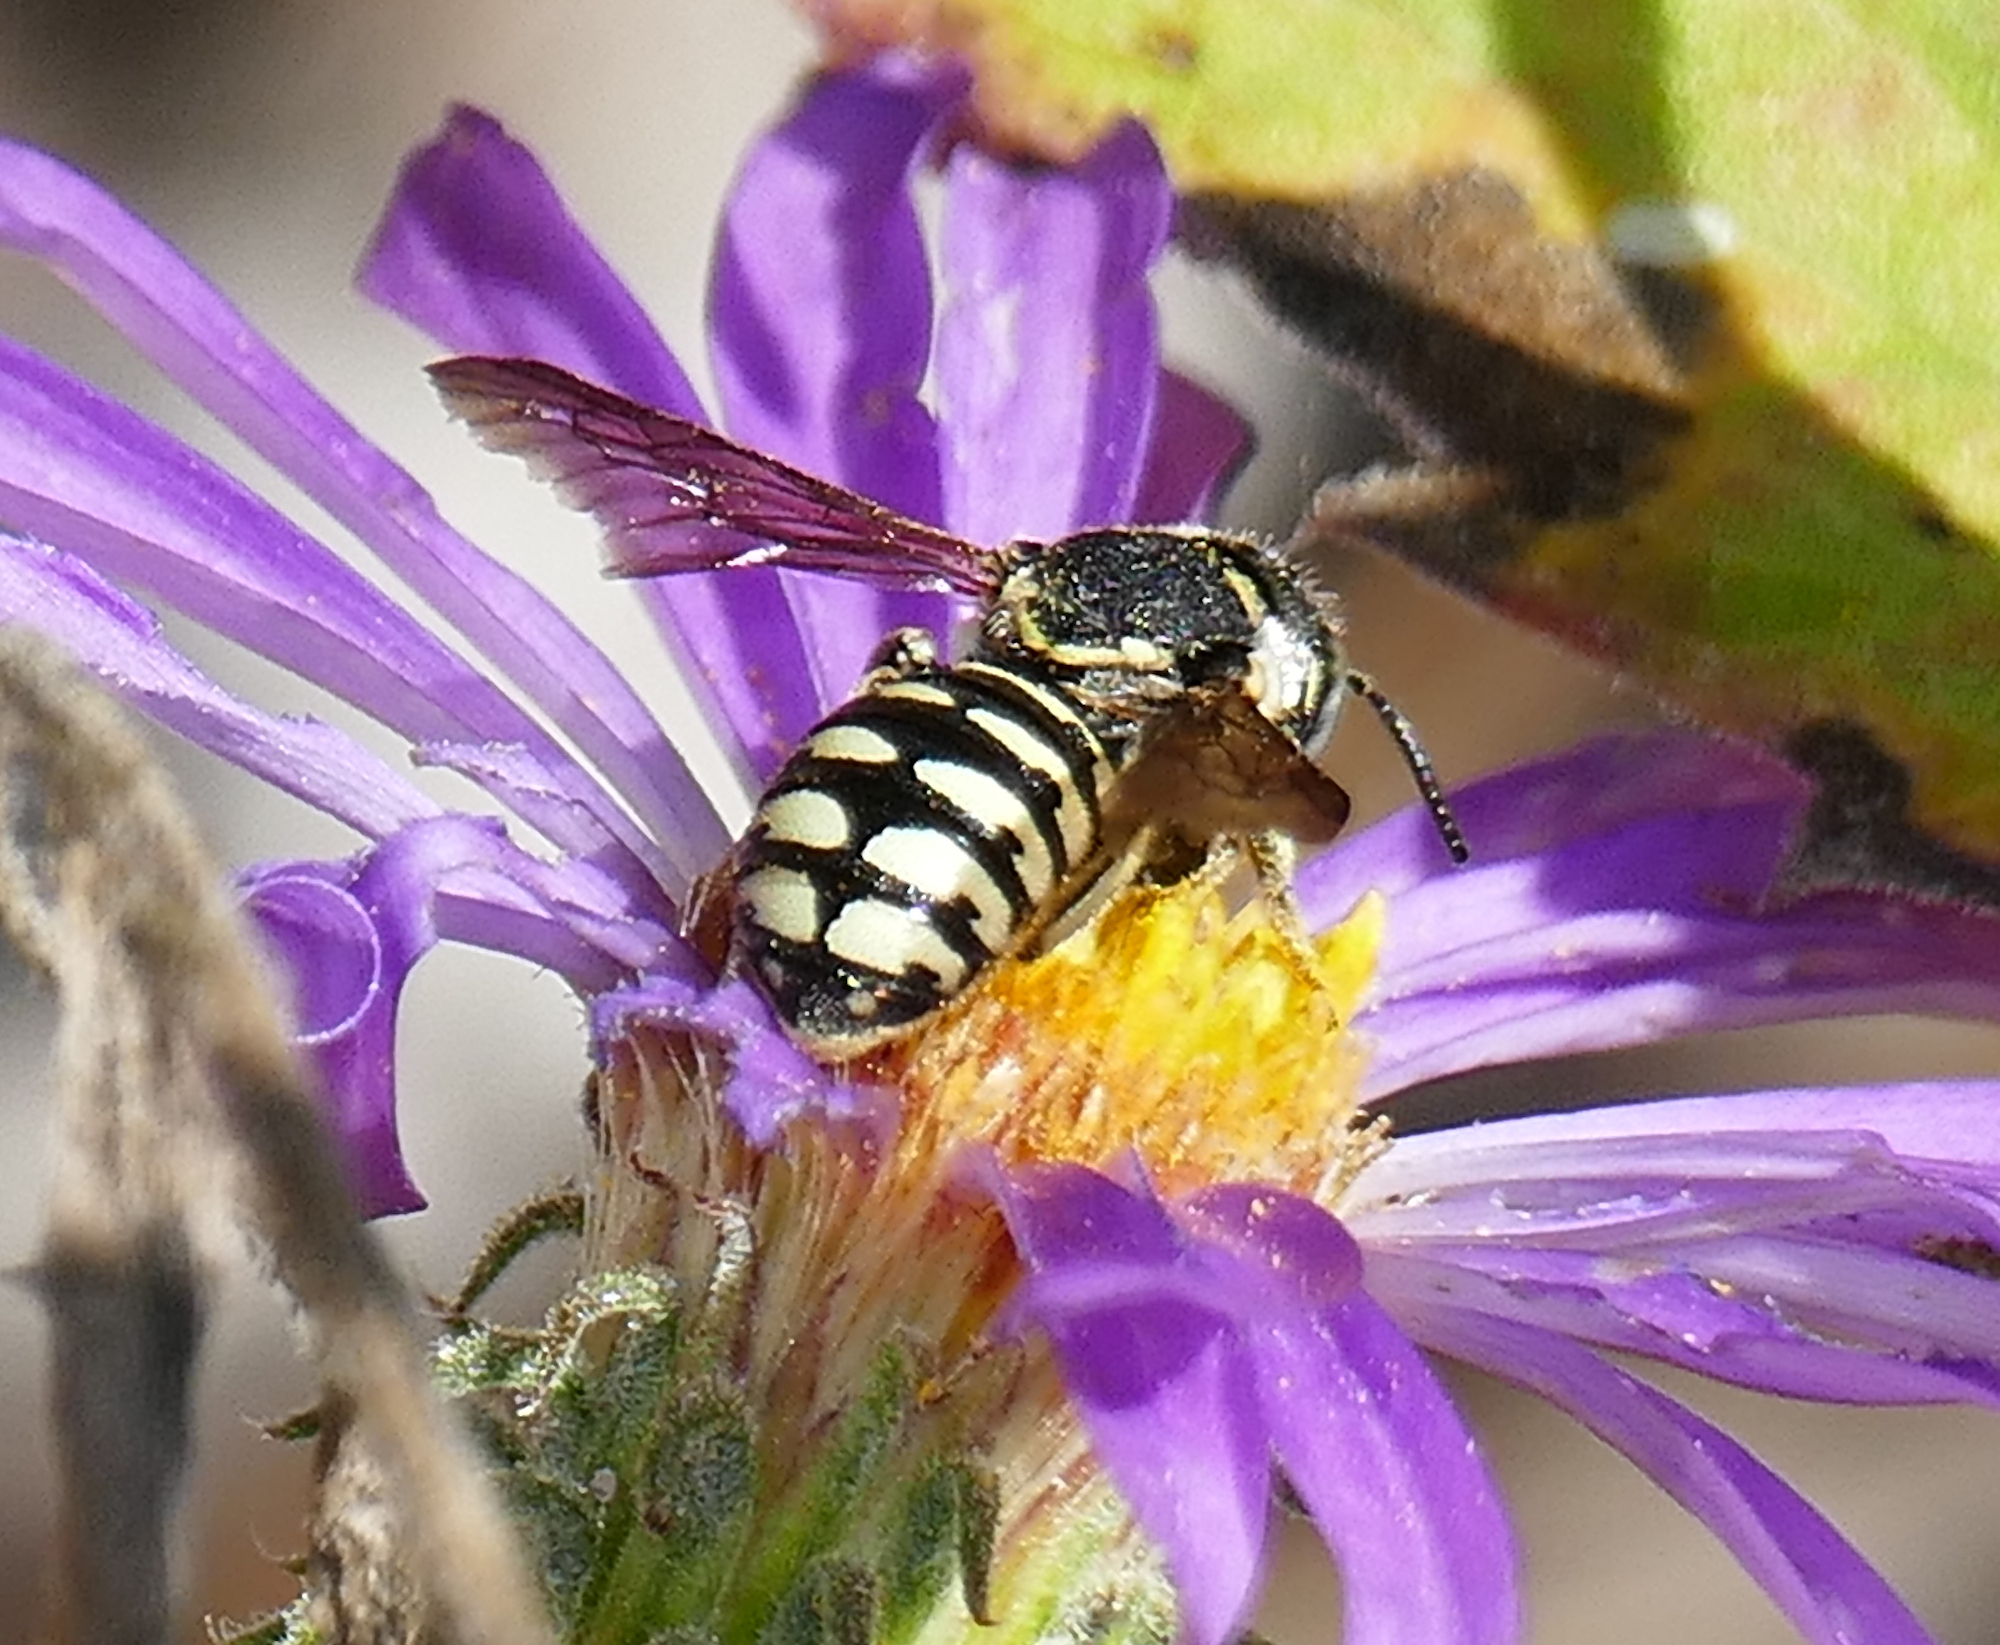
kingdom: Animalia
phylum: Arthropoda
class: Insecta
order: Hymenoptera
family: Megachilidae
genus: Dianthidium
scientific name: Dianthidium
